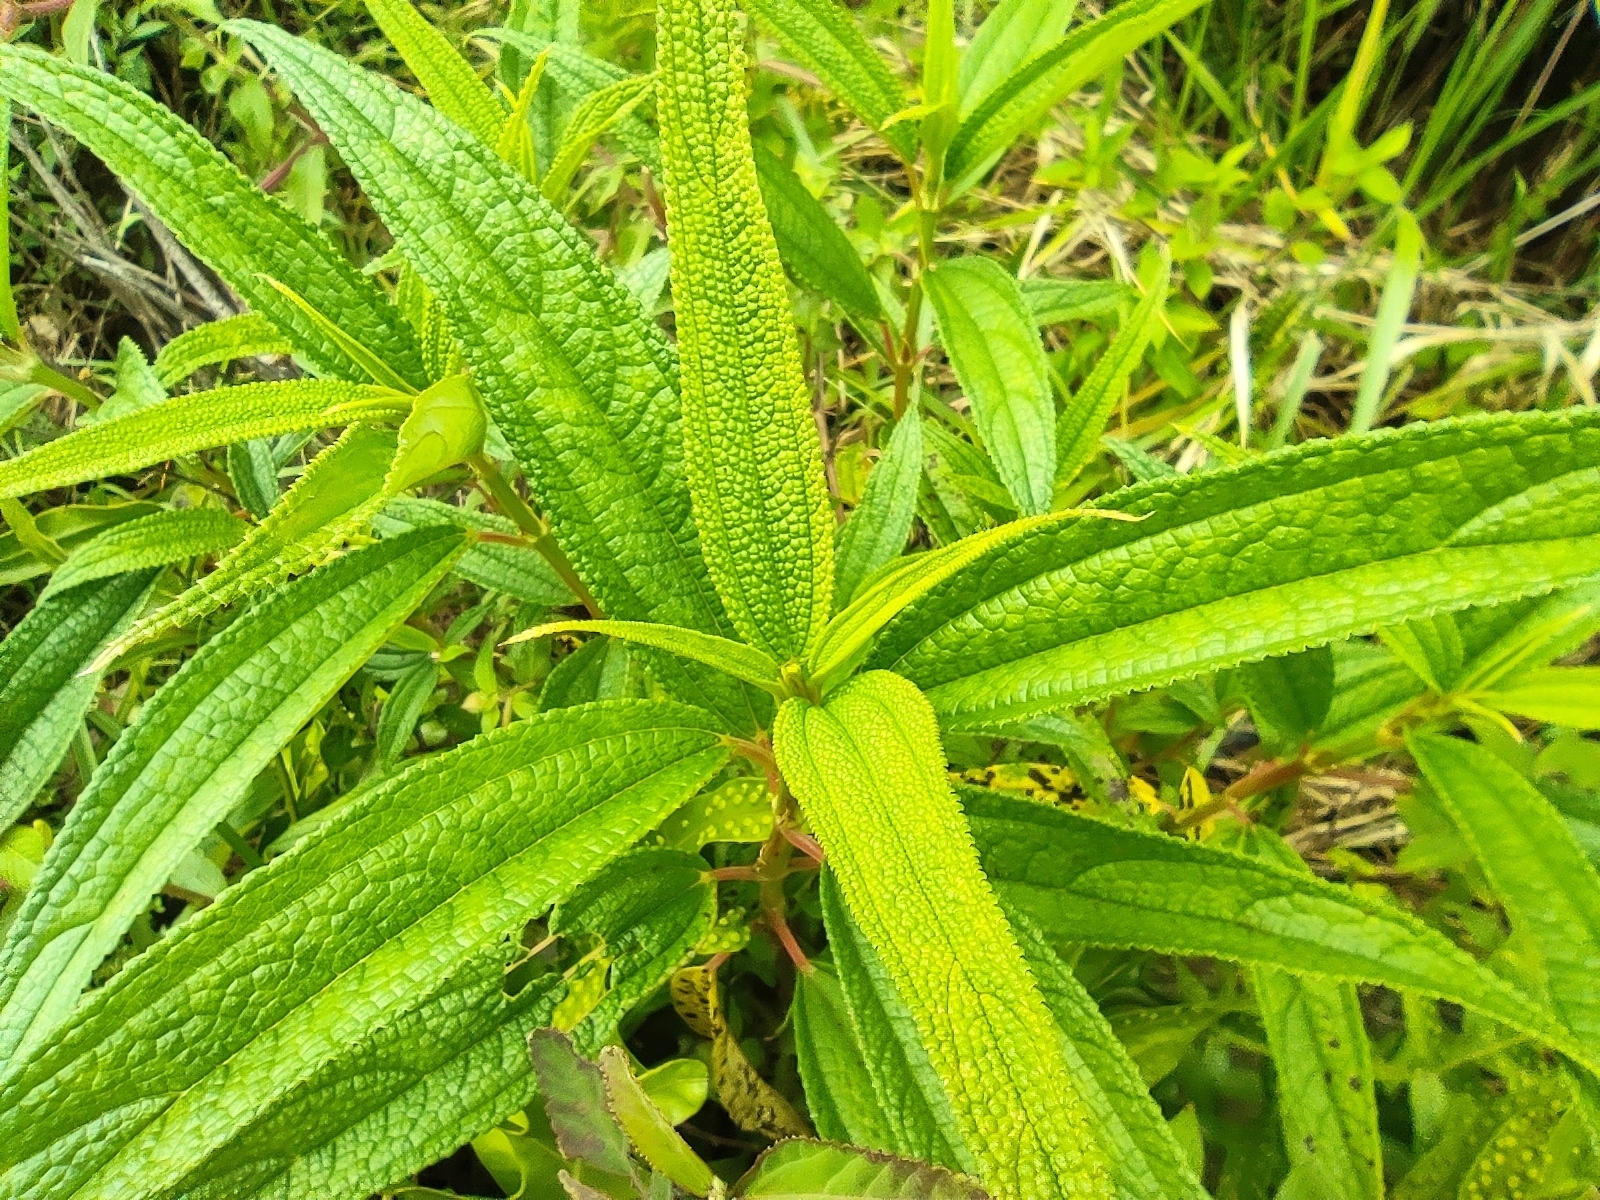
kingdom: Plantae
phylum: Tracheophyta
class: Magnoliopsida
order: Rosales
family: Urticaceae
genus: Boehmeria
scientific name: Boehmeria penduliflora
